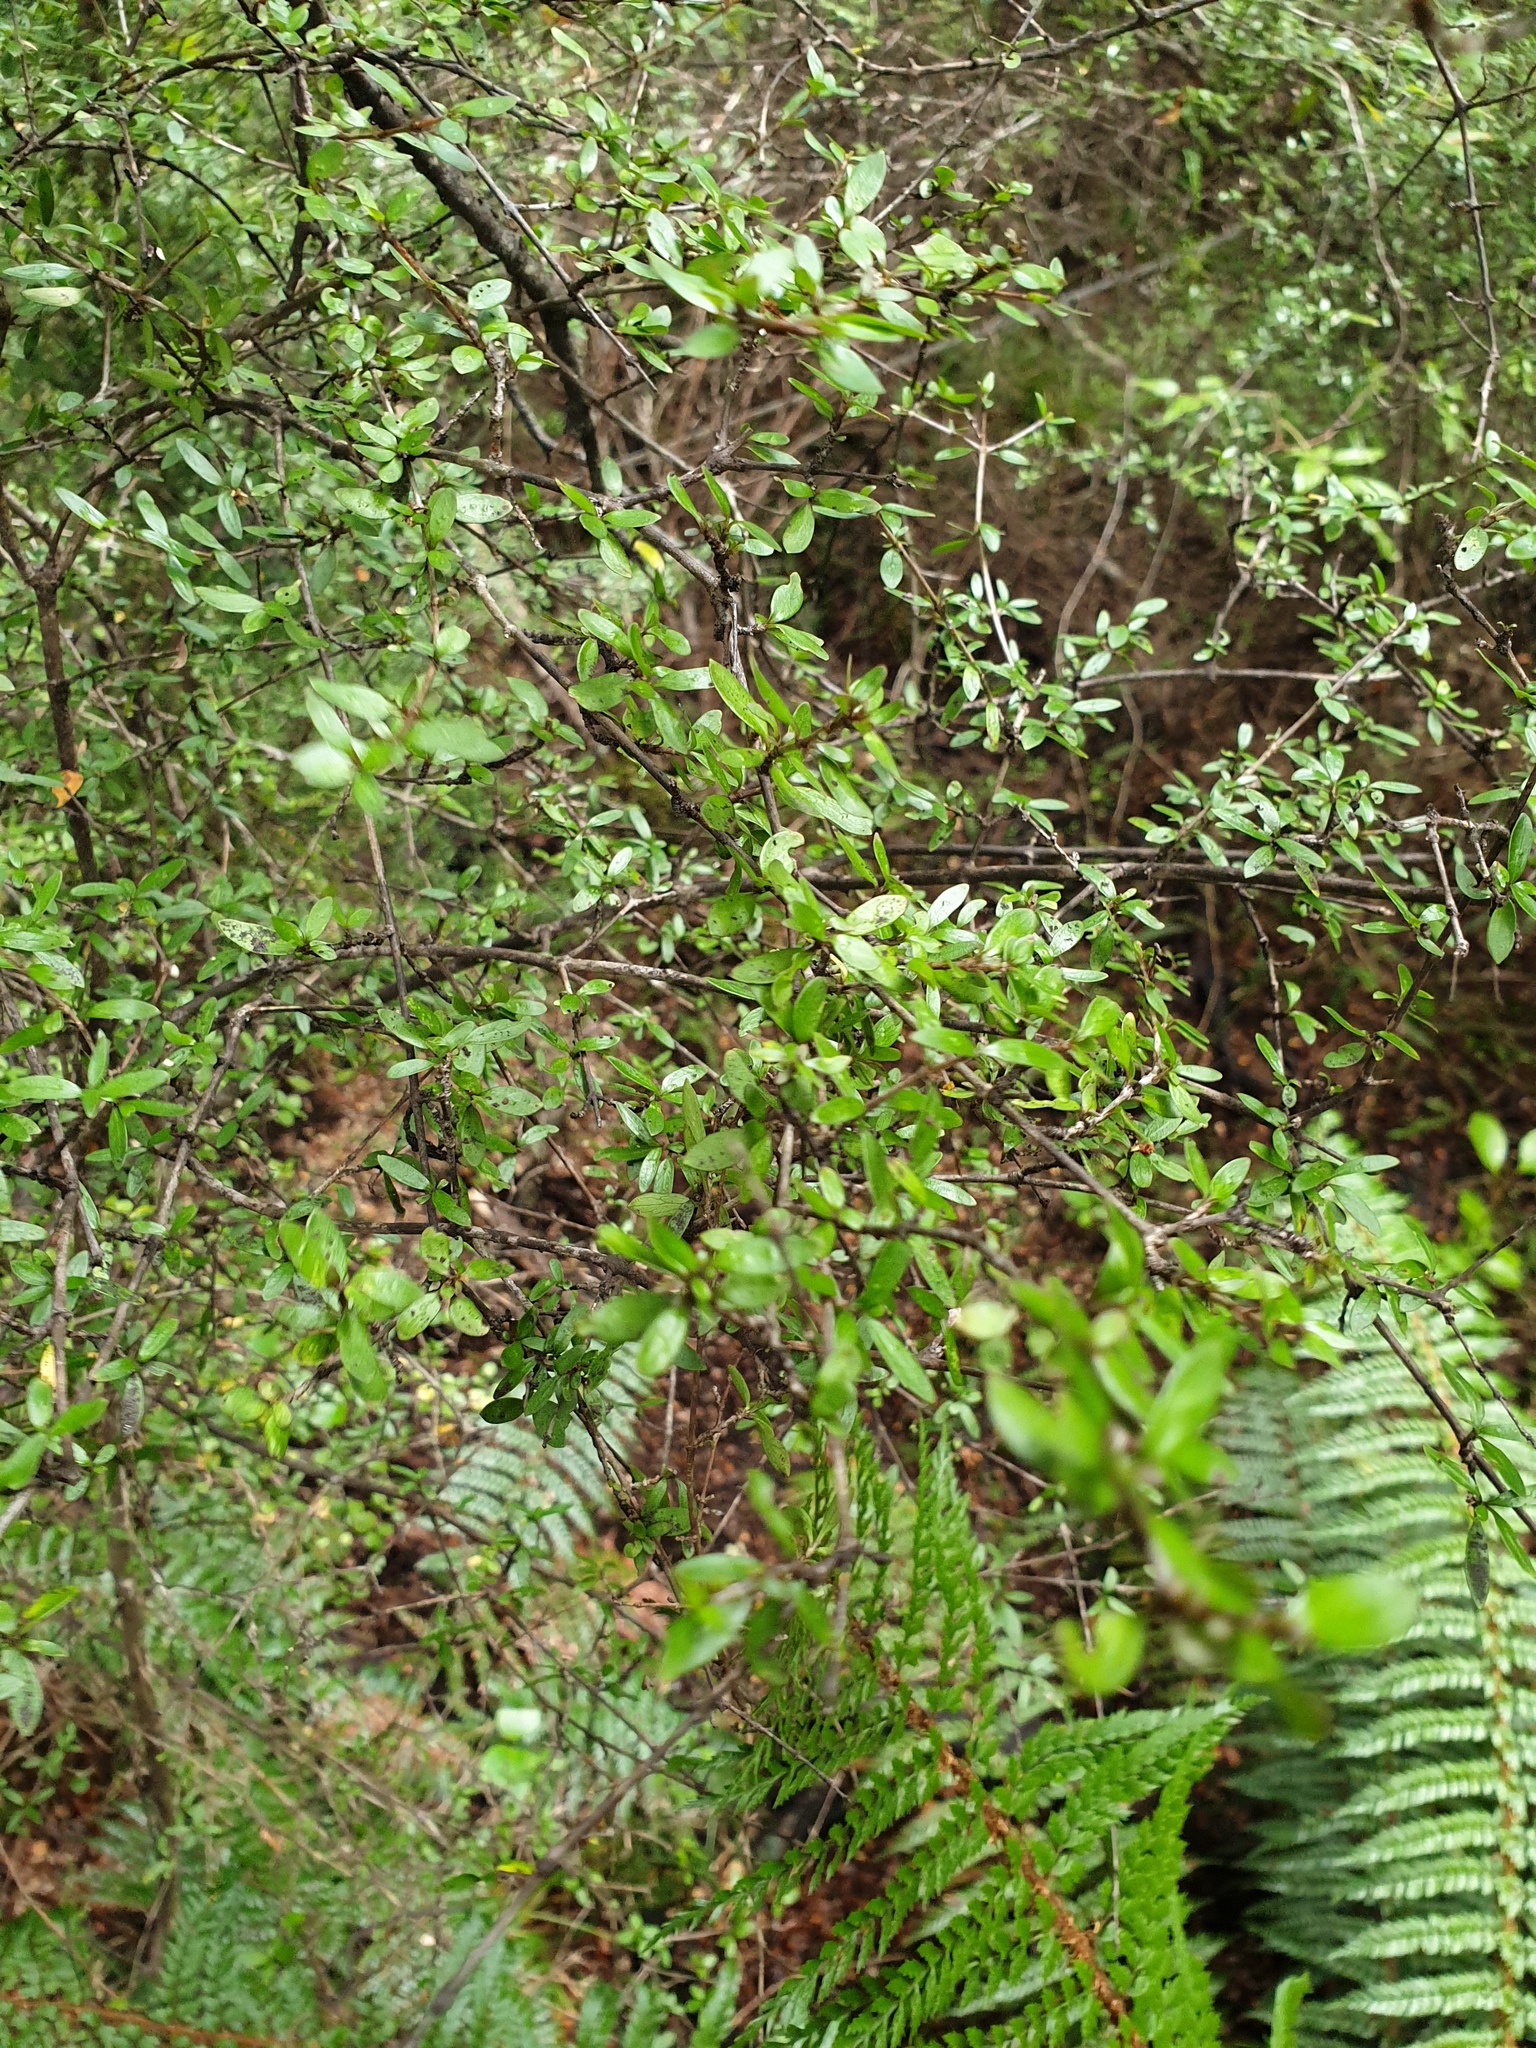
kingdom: Plantae
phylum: Tracheophyta
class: Magnoliopsida
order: Gentianales
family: Rubiaceae
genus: Coprosma
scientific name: Coprosma propinqua
